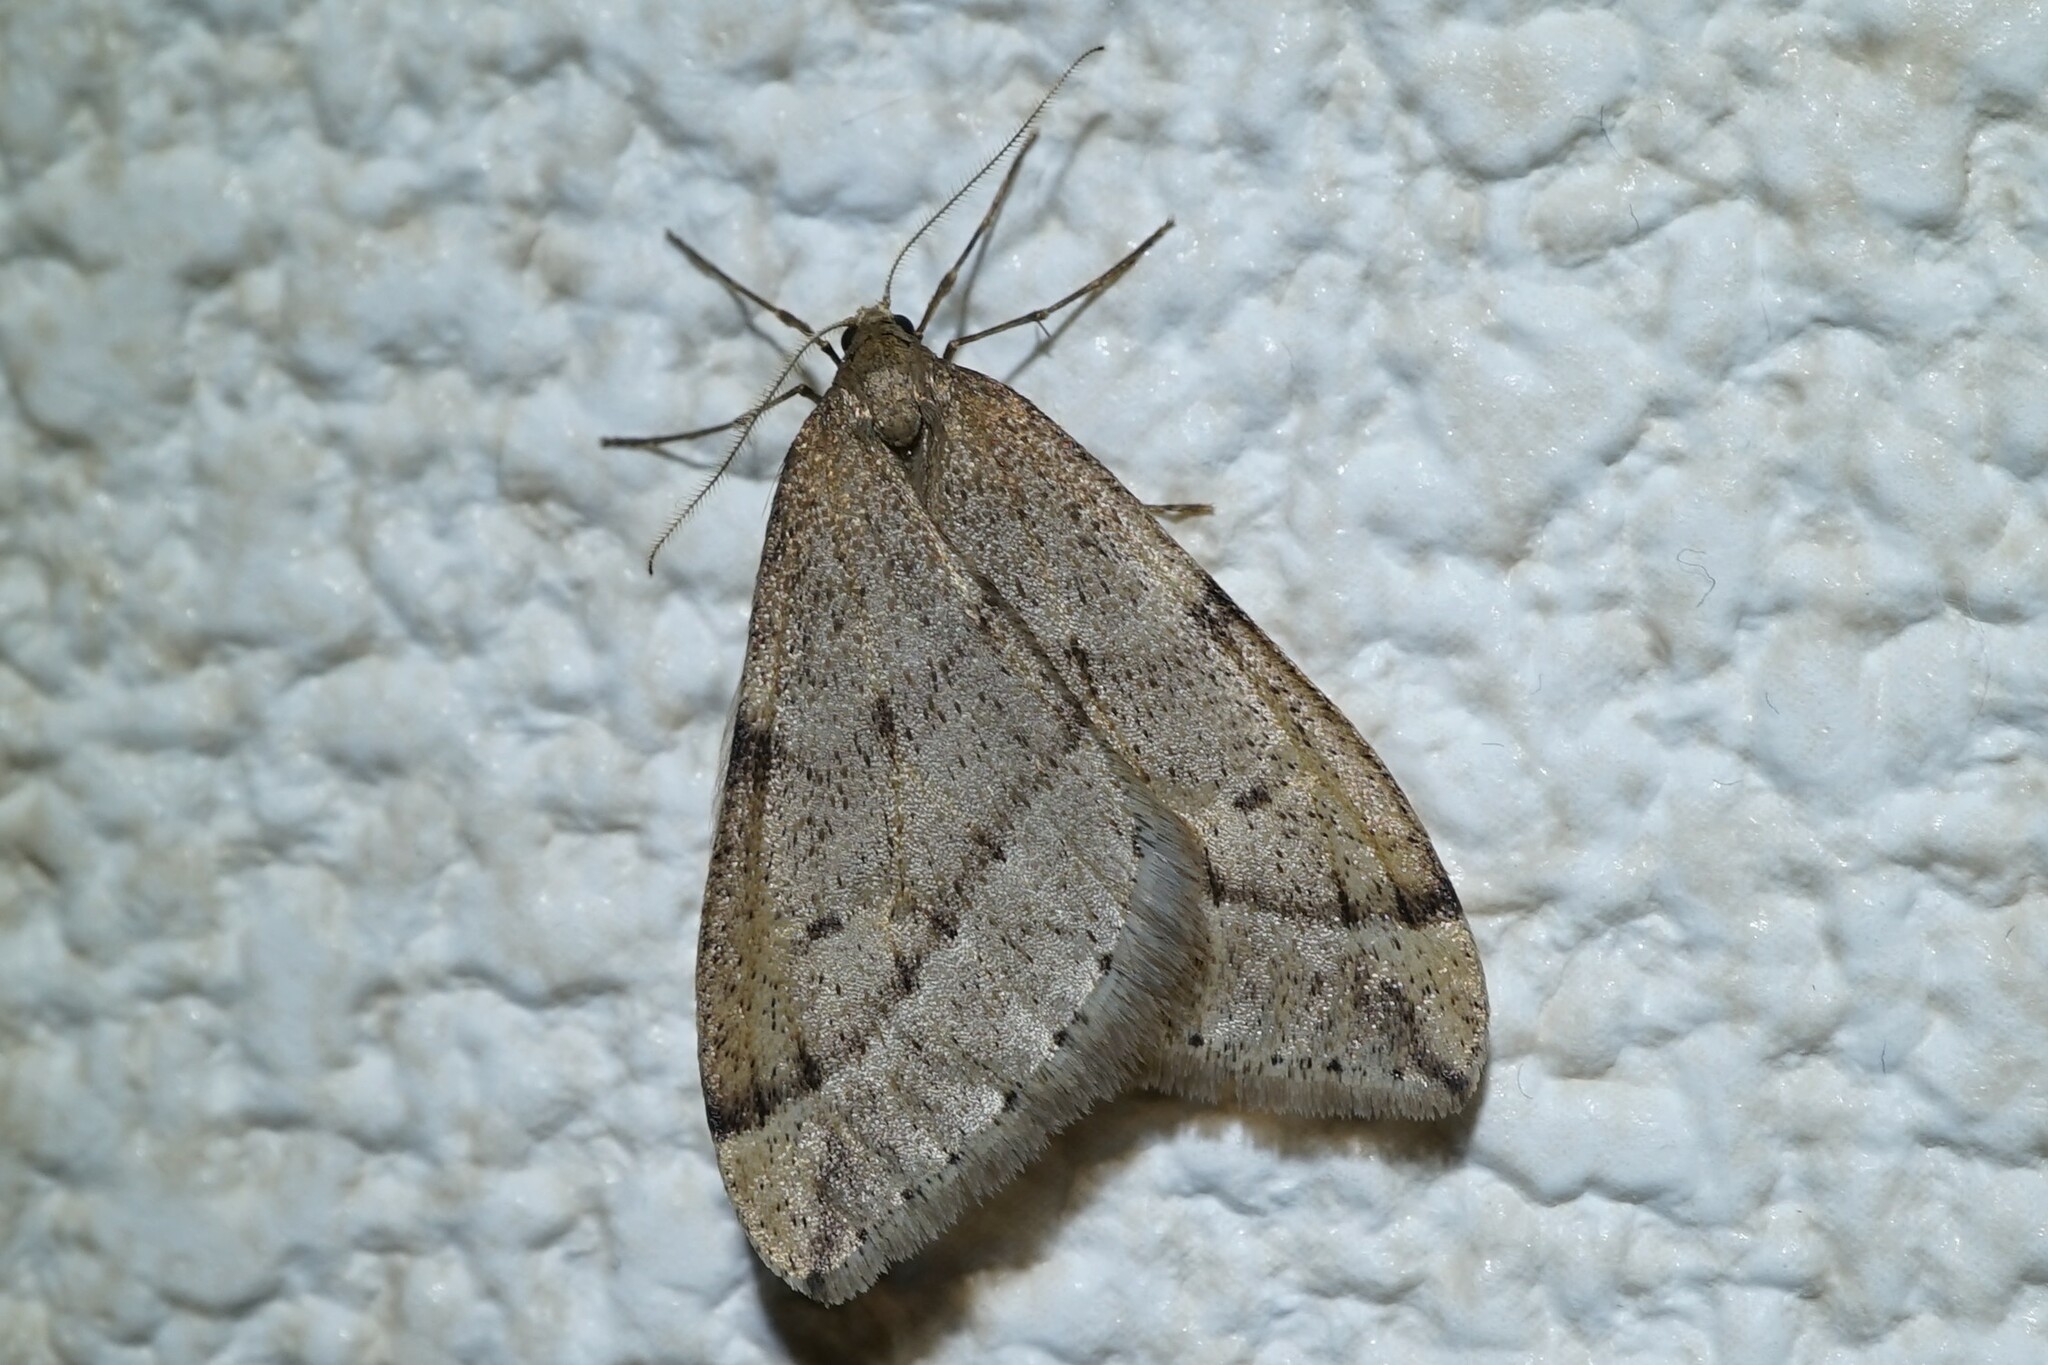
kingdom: Animalia
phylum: Arthropoda
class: Insecta
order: Lepidoptera
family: Geometridae
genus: Inurois
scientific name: Inurois fletcheri
